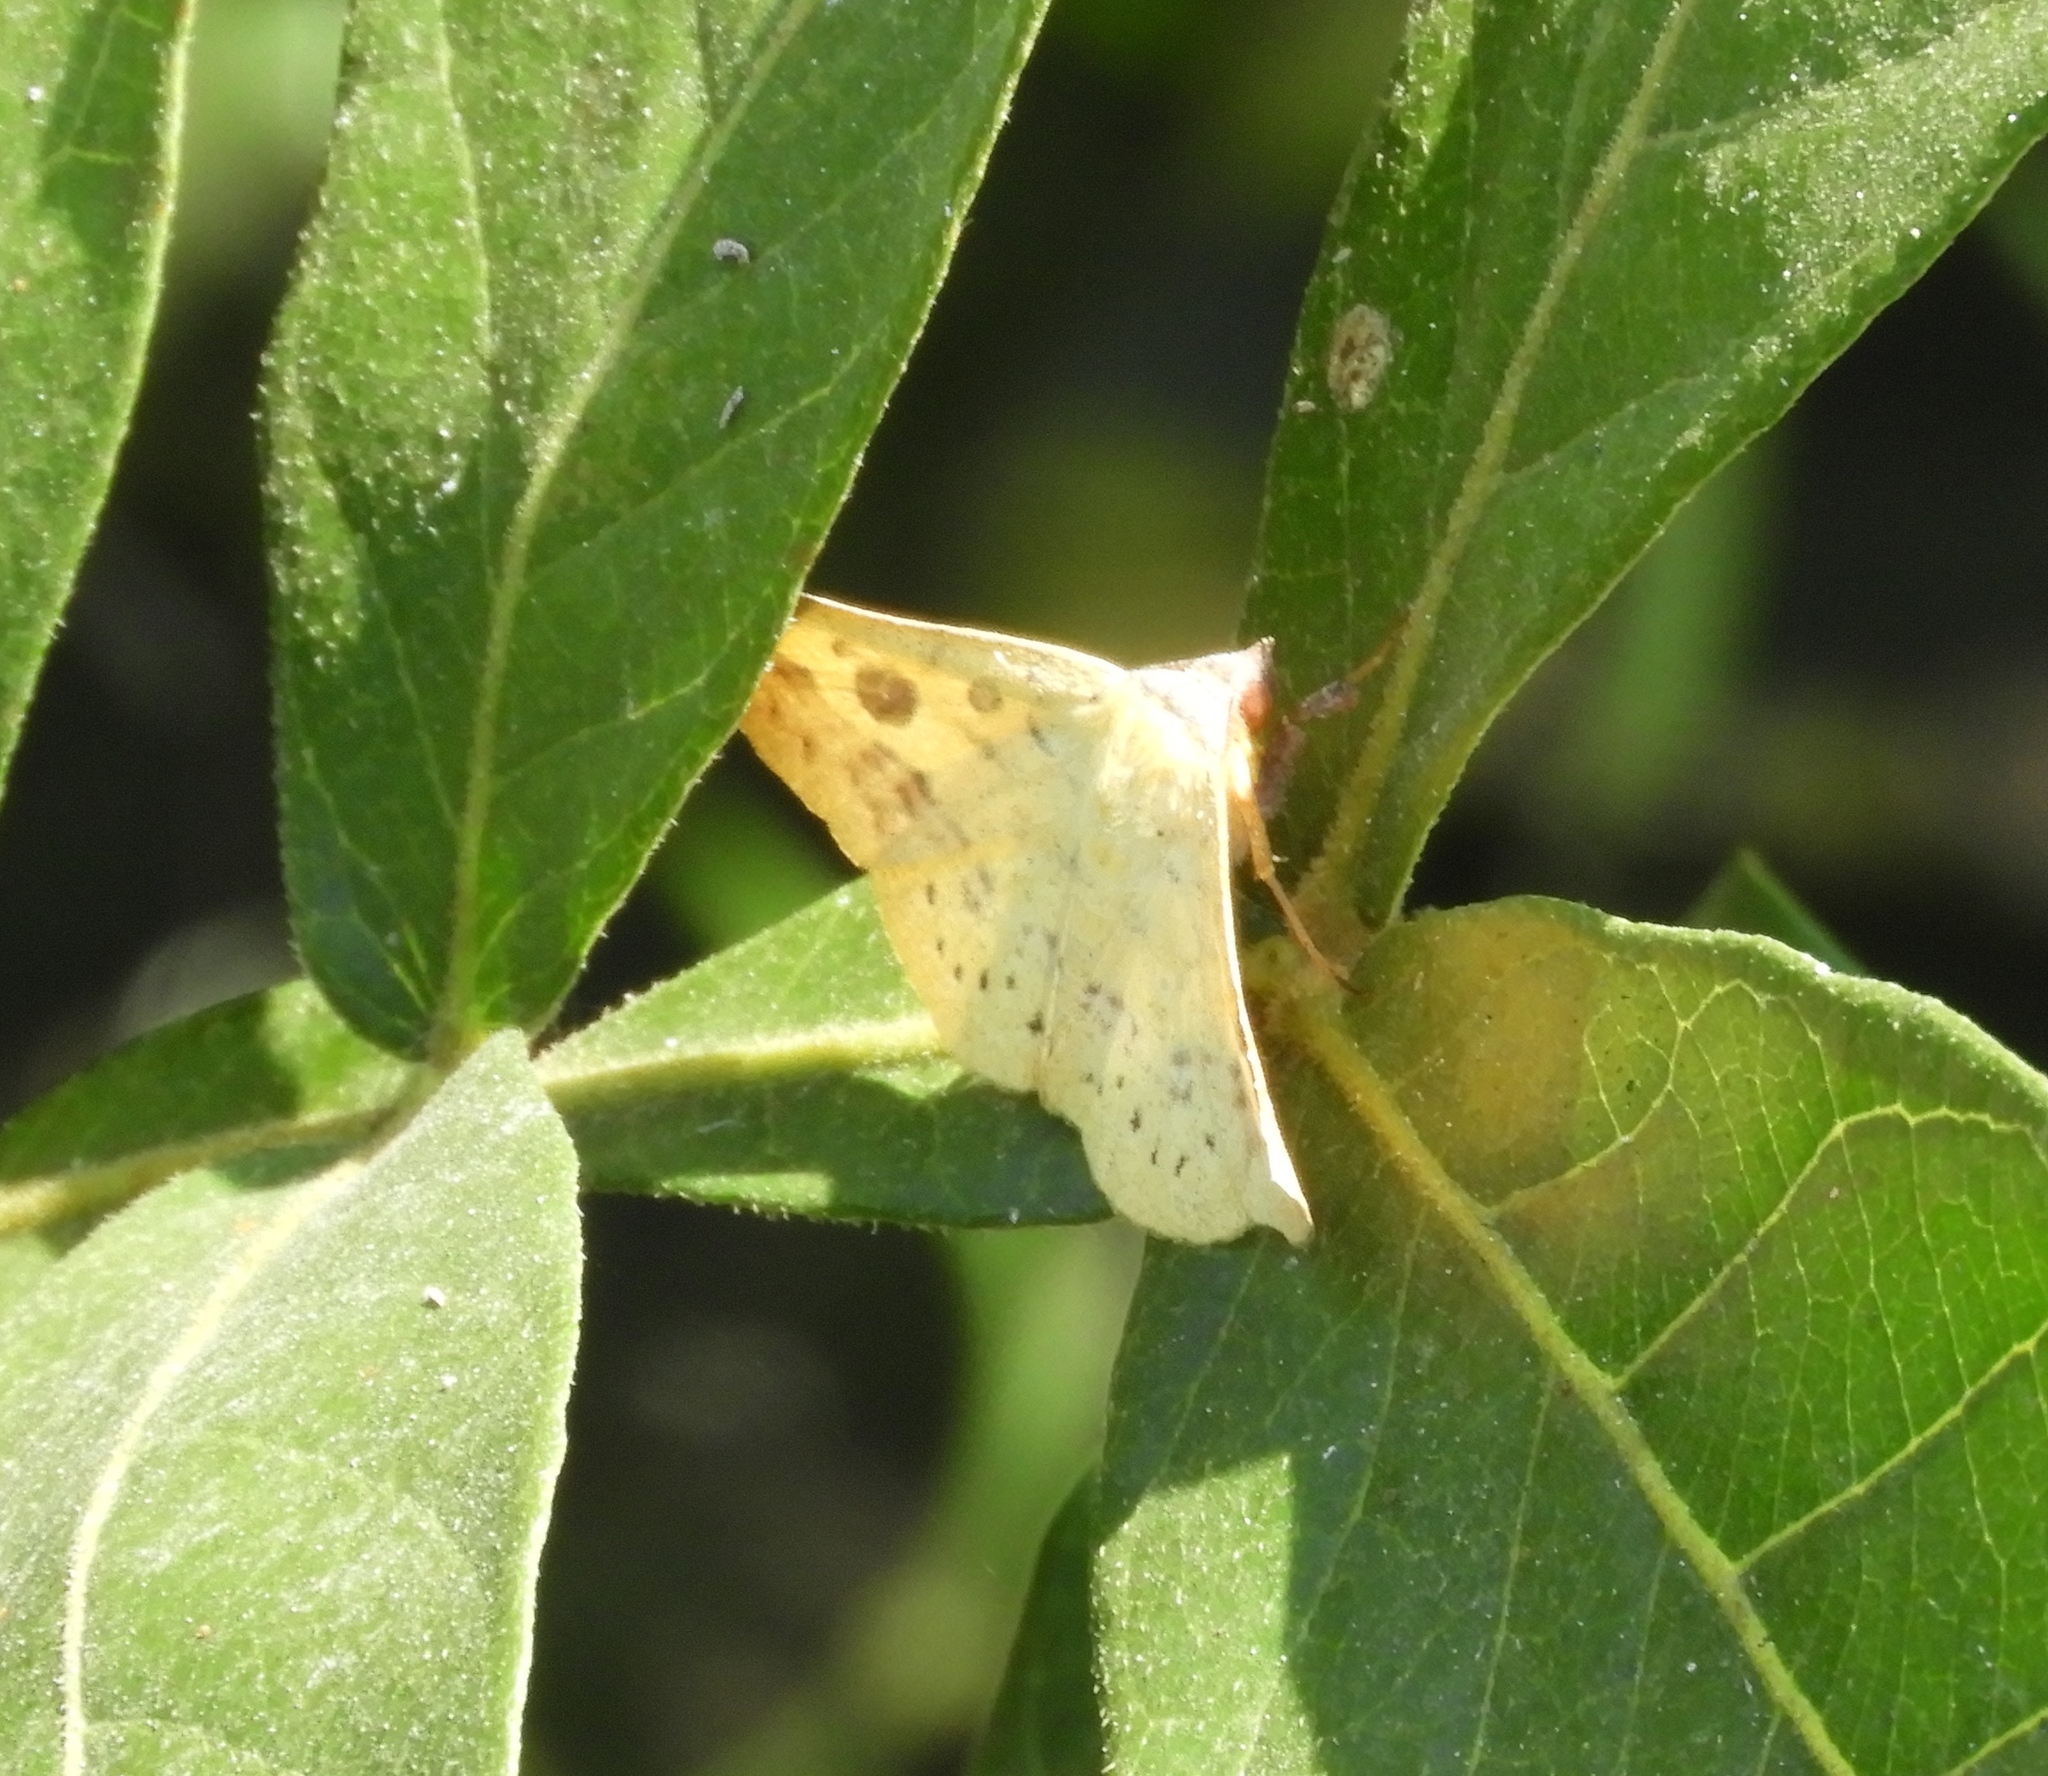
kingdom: Animalia
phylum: Arthropoda
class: Insecta
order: Lepidoptera
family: Erebidae
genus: Epitausa
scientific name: Epitausa coppryi
